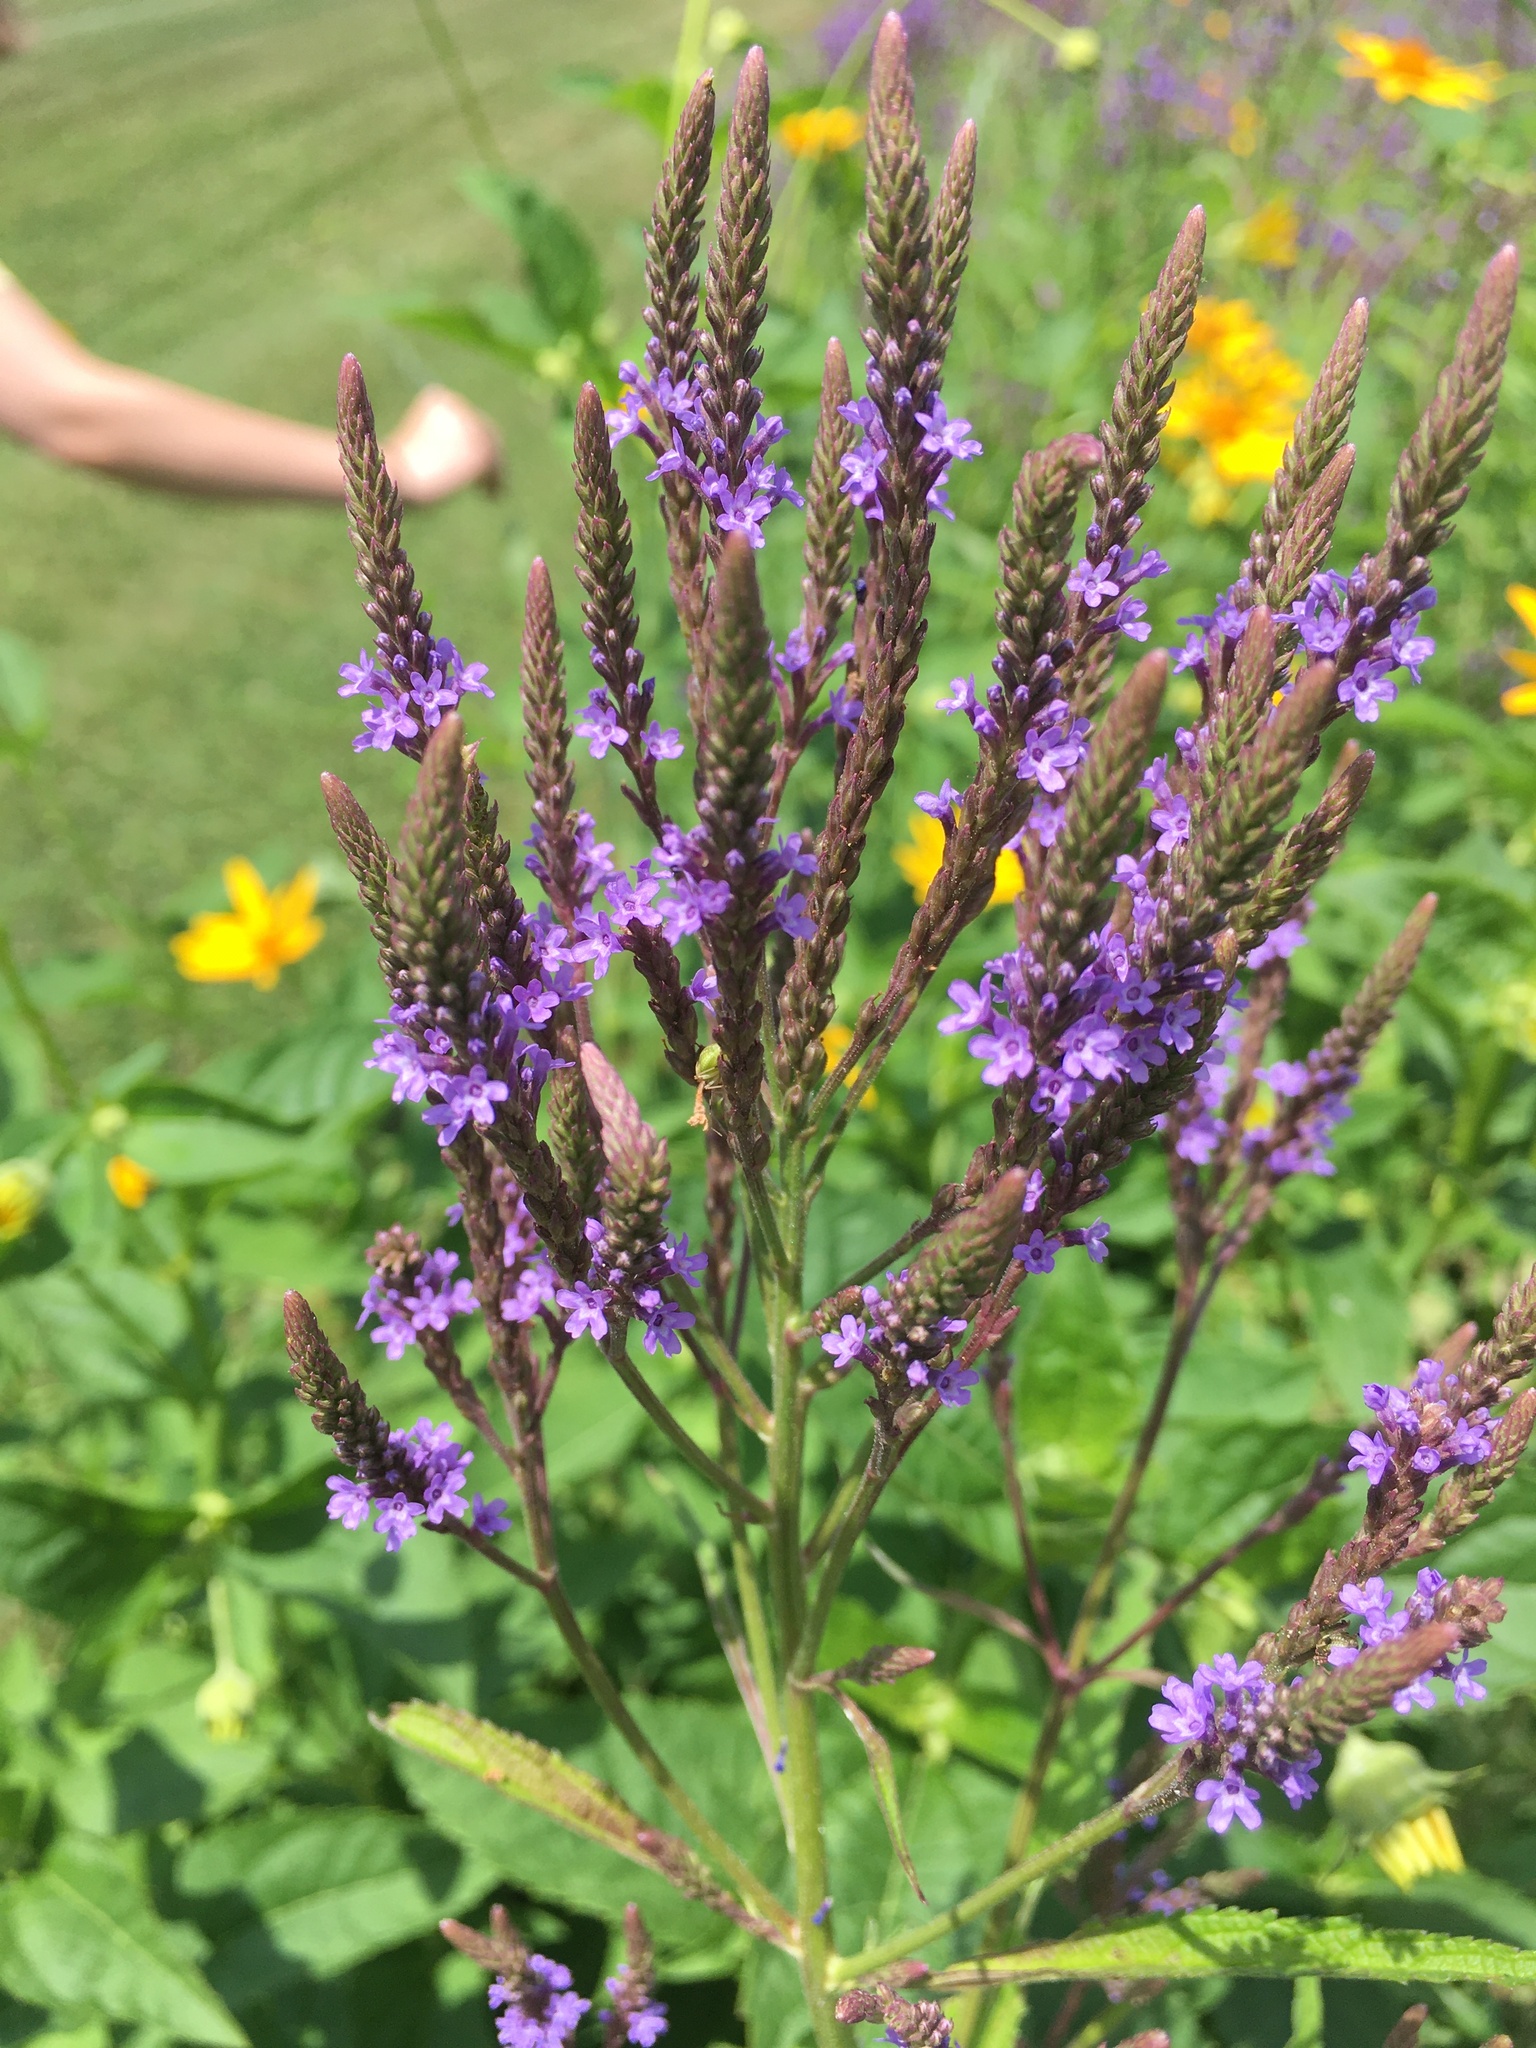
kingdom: Plantae
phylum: Tracheophyta
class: Magnoliopsida
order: Lamiales
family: Verbenaceae
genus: Verbena
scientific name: Verbena hastata
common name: American blue vervain
